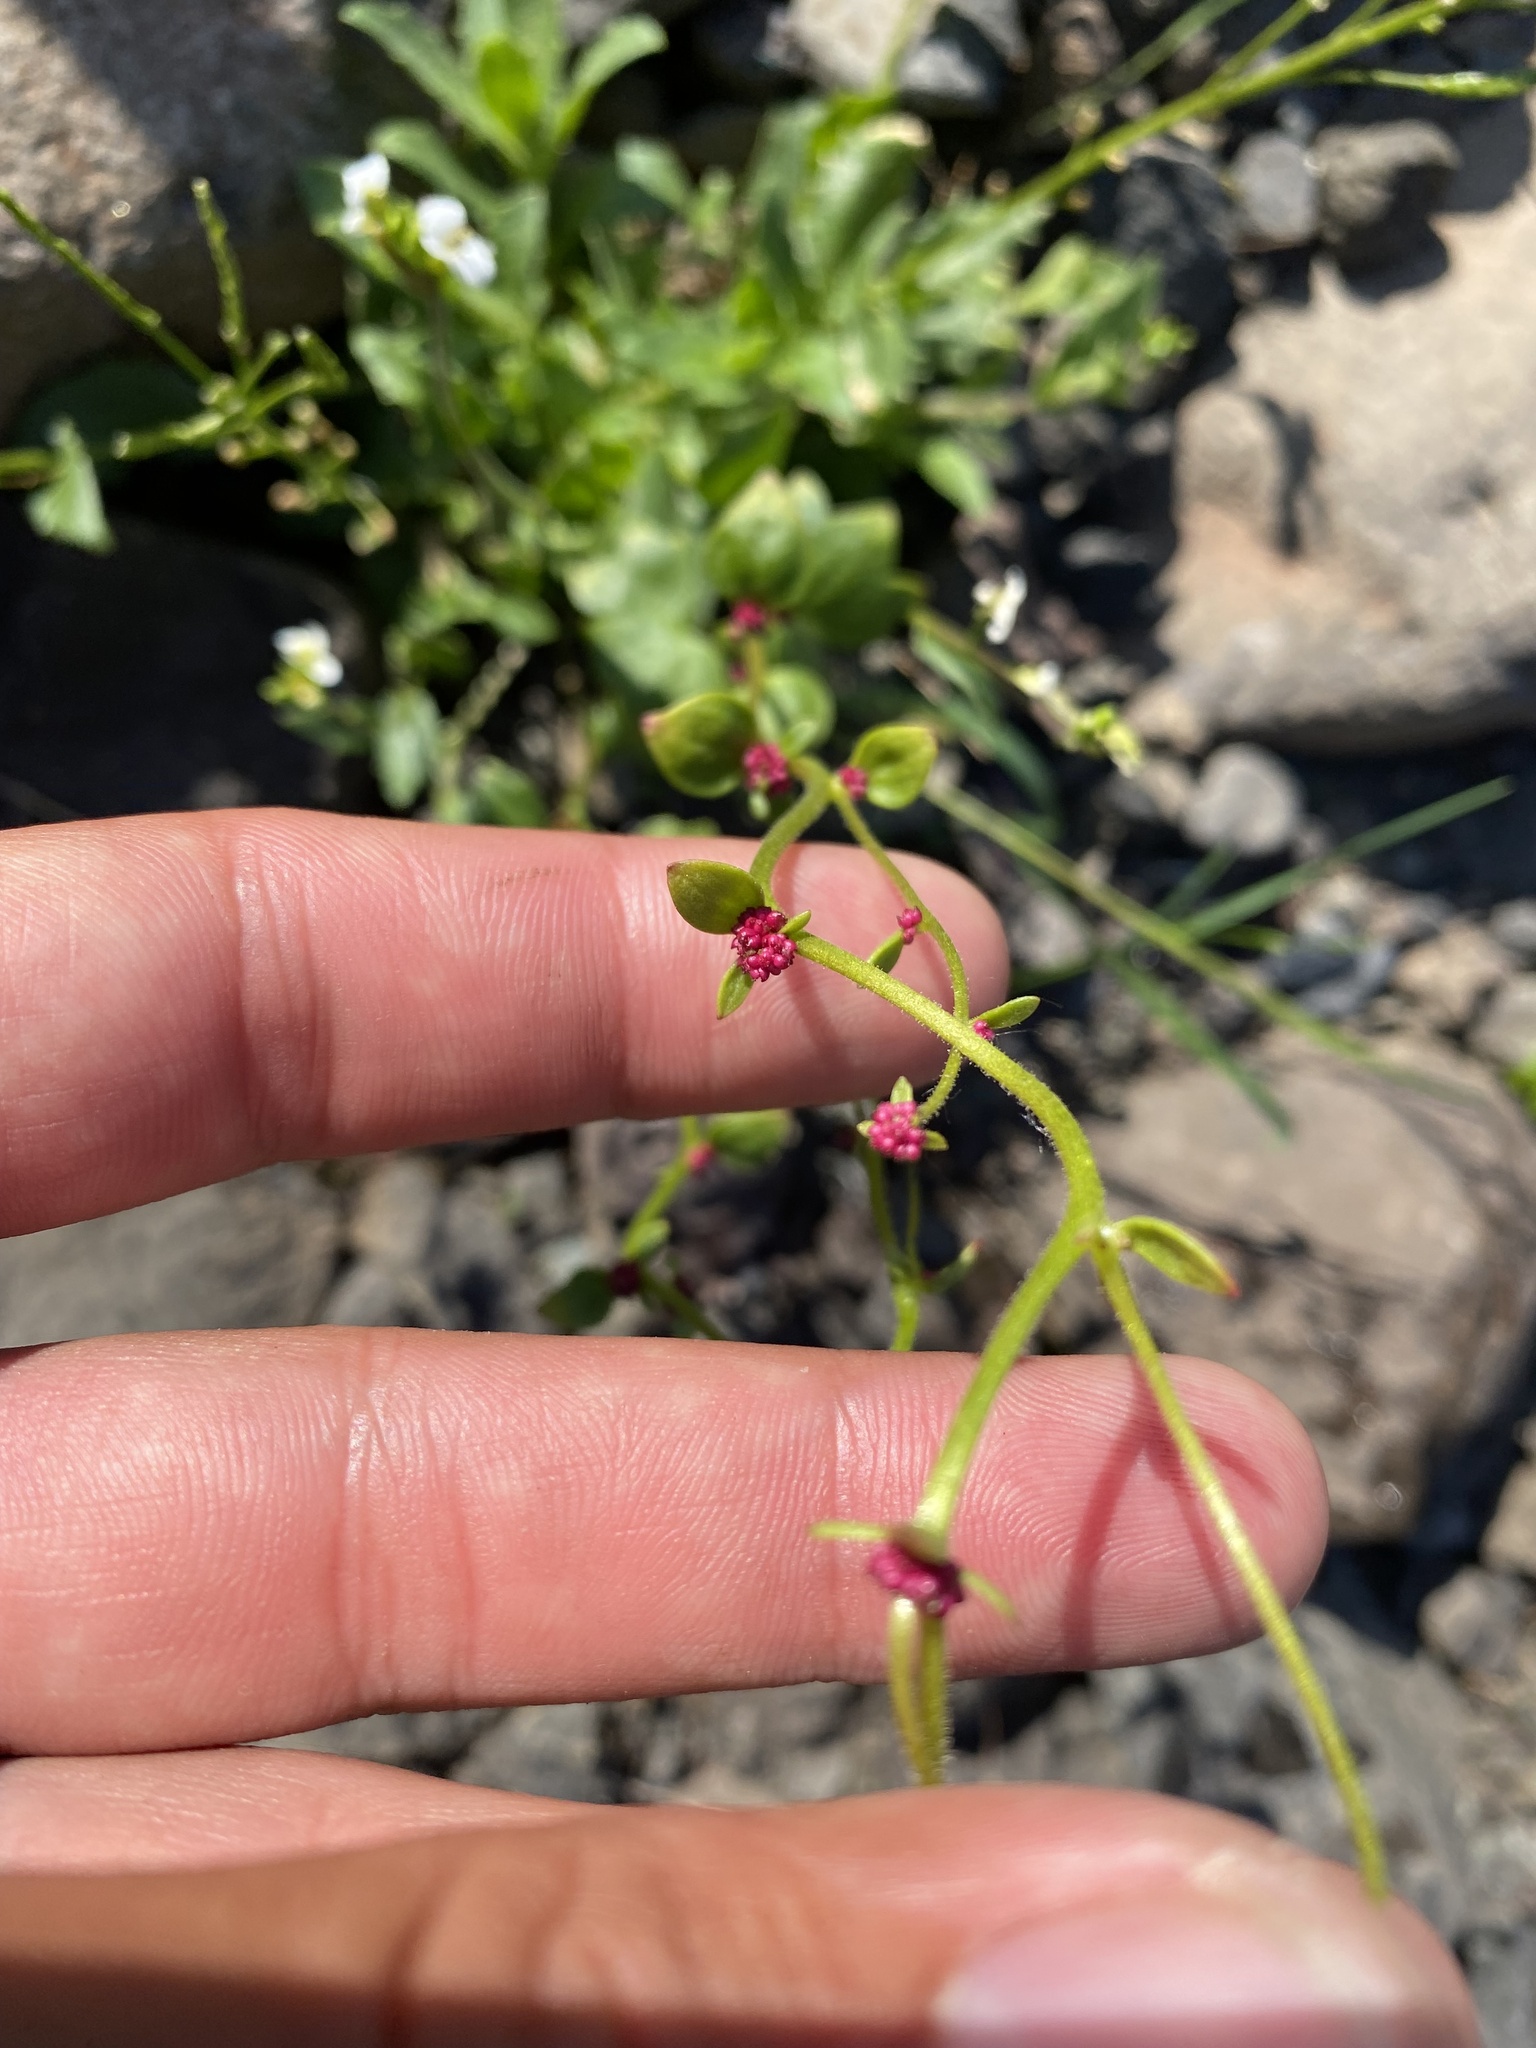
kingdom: Plantae
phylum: Tracheophyta
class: Magnoliopsida
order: Saxifragales
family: Saxifragaceae
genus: Saxifraga
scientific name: Saxifraga cernua
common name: Drooping saxifrage
